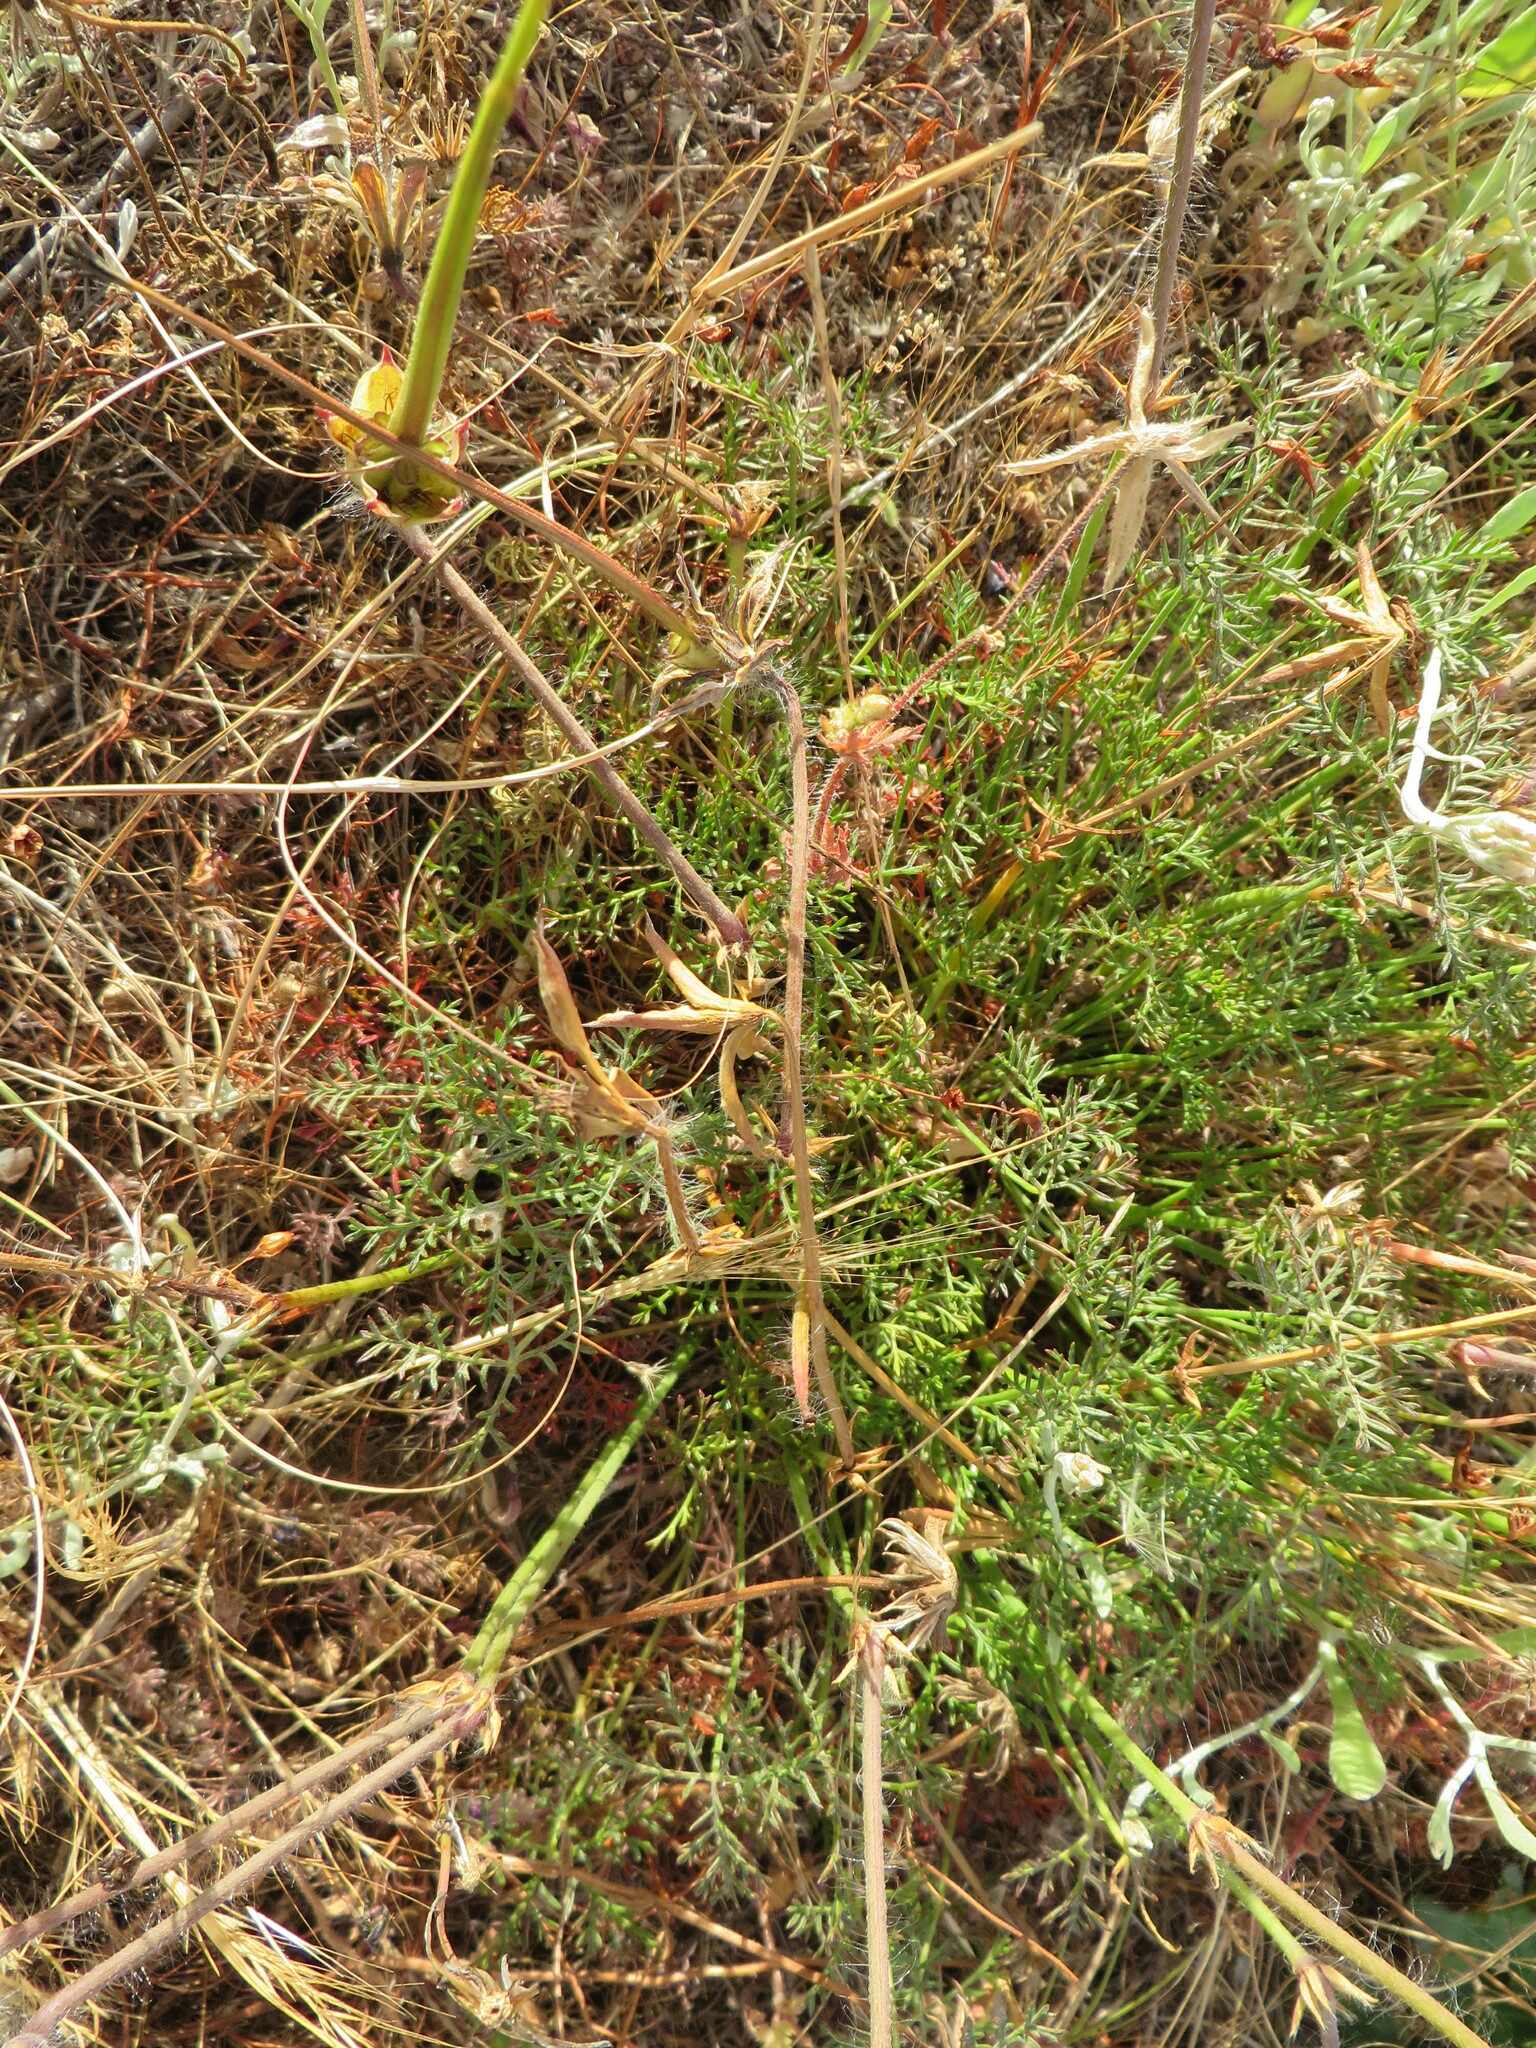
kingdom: Plantae
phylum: Tracheophyta
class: Magnoliopsida
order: Geraniales
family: Geraniaceae
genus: Monsonia
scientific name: Monsonia speciosa
